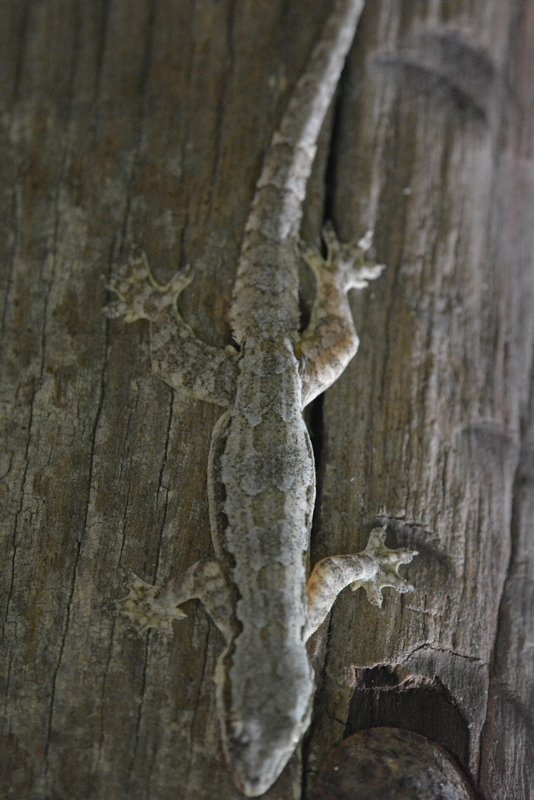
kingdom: Animalia
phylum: Chordata
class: Squamata
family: Gekkonidae
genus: Hemidactylus
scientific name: Hemidactylus platyurus
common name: Flat-tailed house gecko
